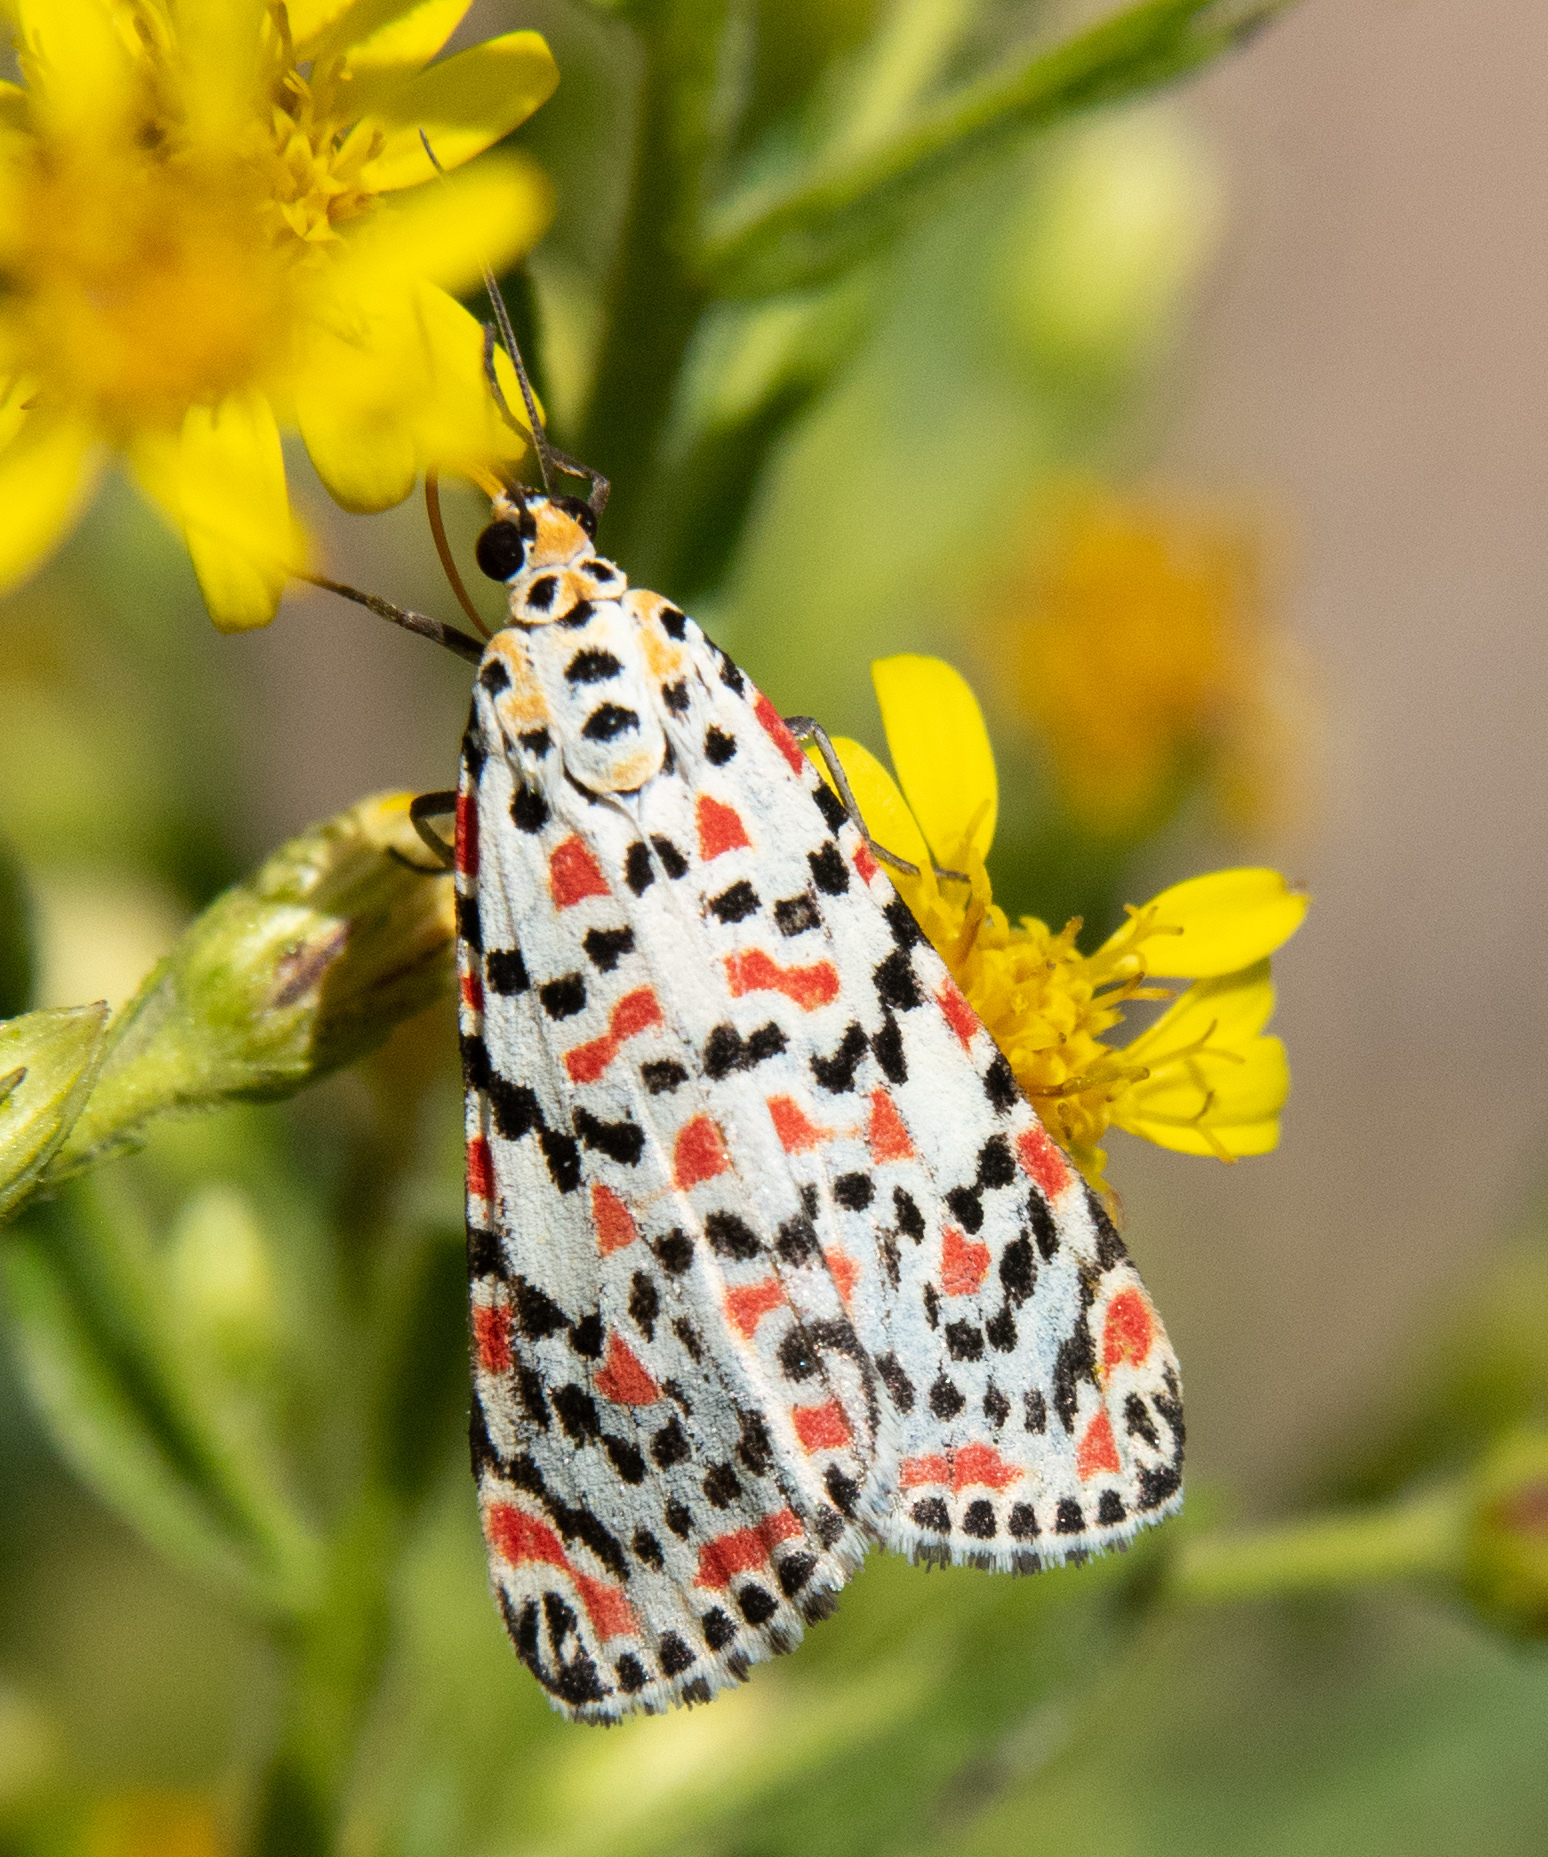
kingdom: Animalia
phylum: Arthropoda
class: Insecta
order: Lepidoptera
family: Erebidae
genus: Utetheisa
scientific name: Utetheisa pulchella
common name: Crimson speckled
